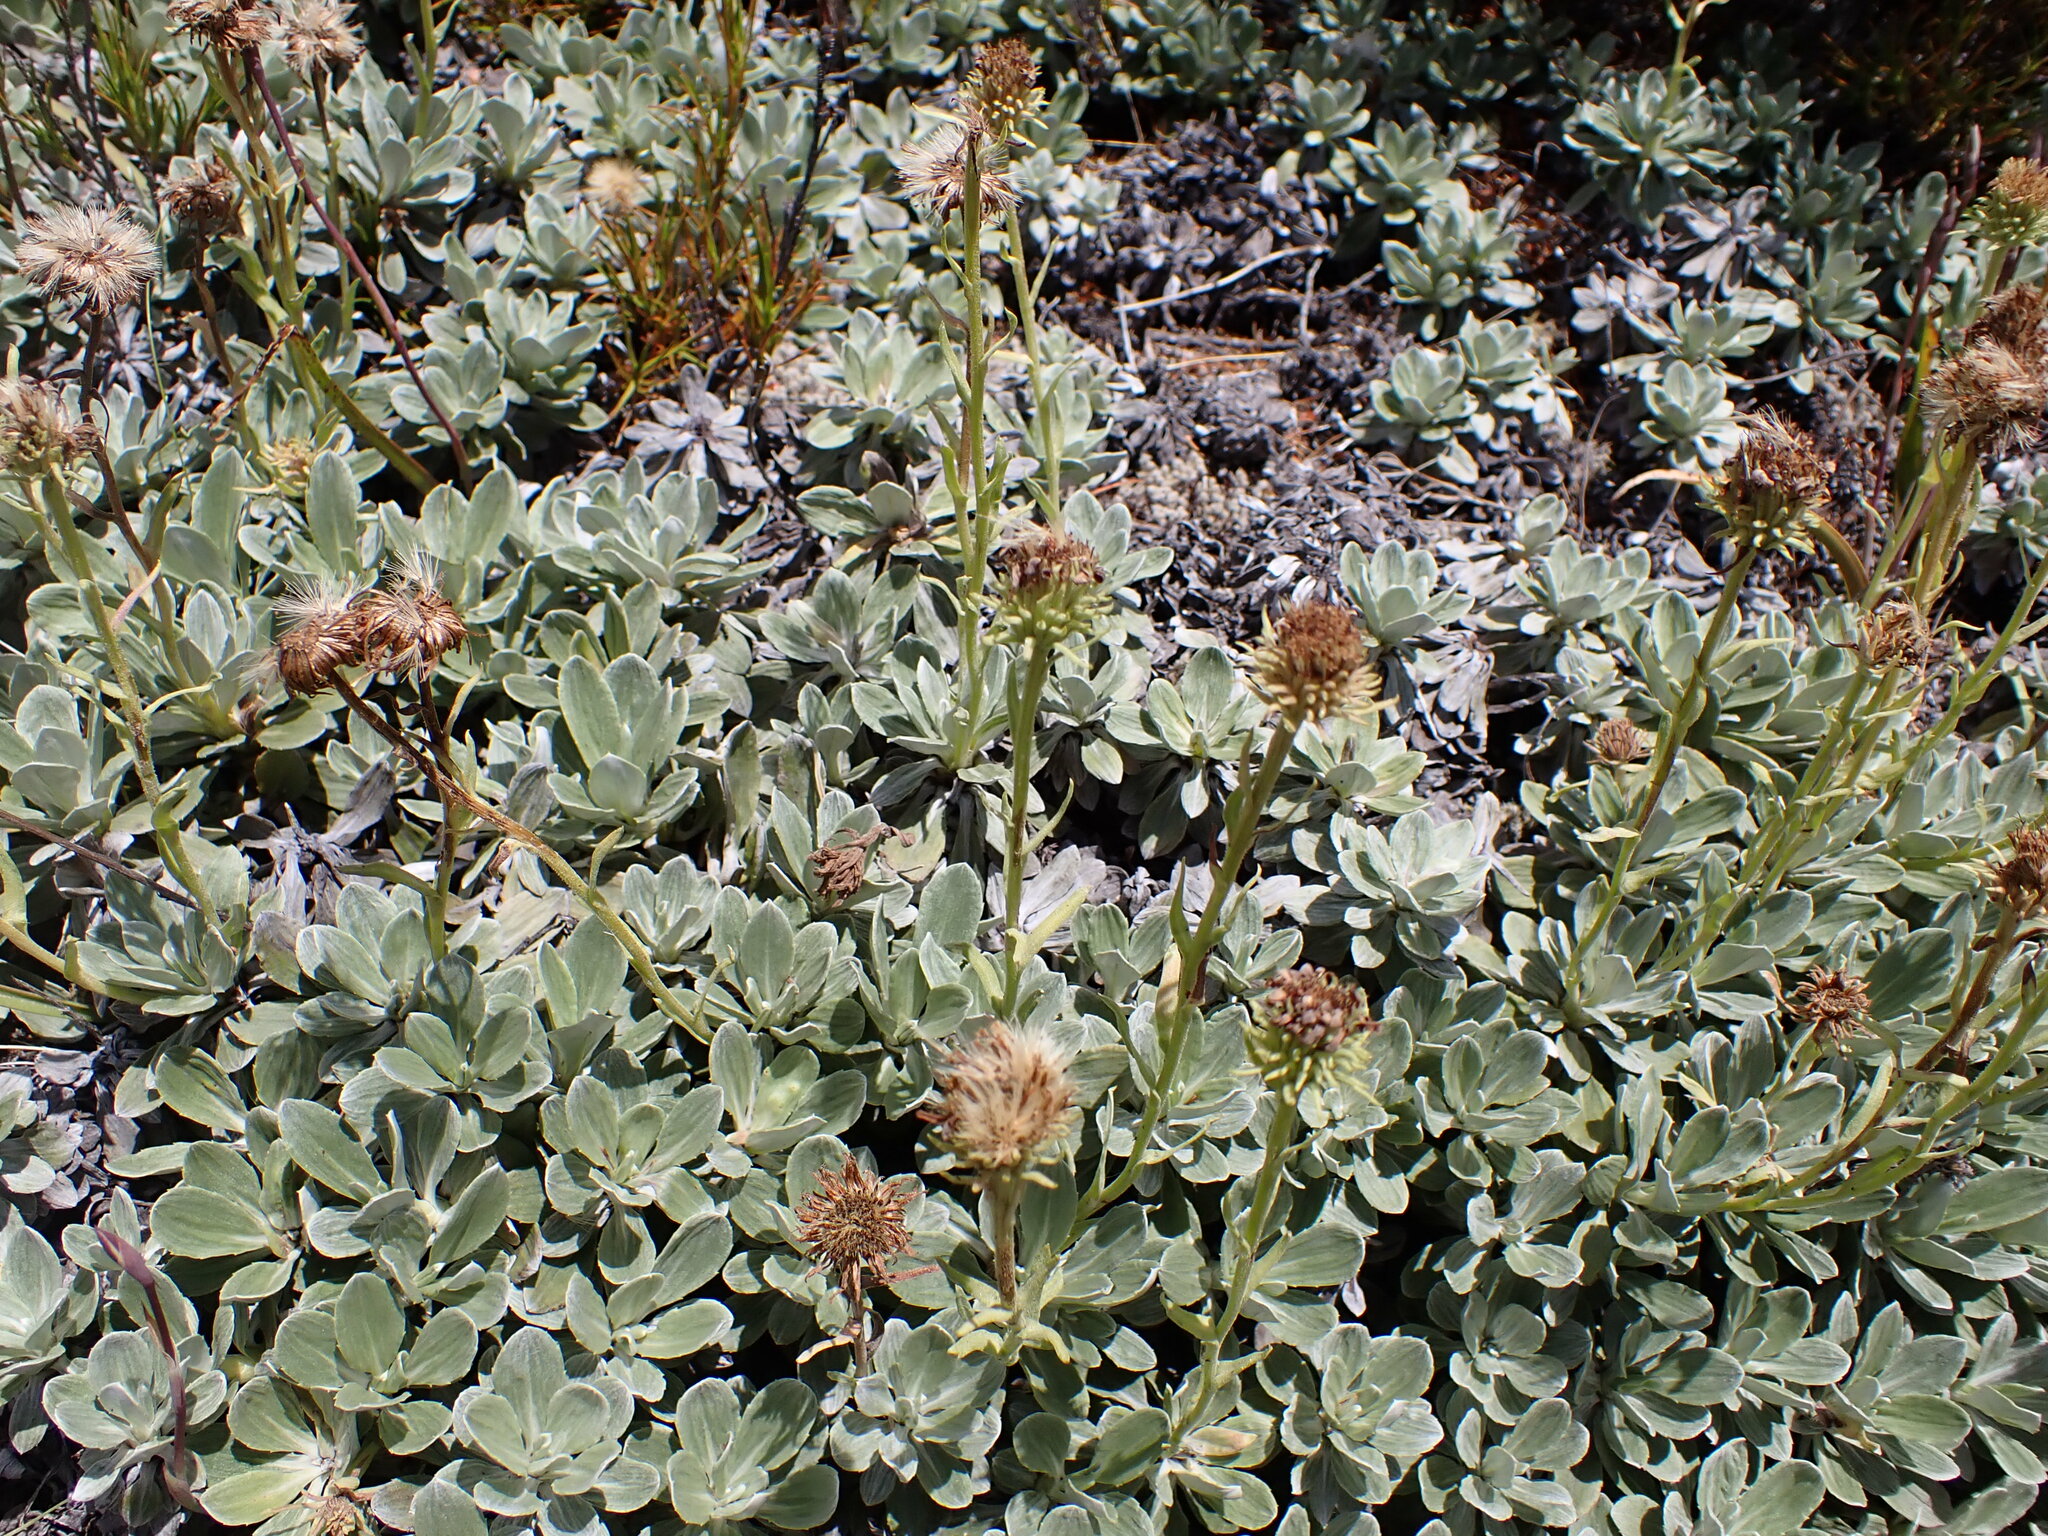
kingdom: Plantae
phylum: Tracheophyta
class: Magnoliopsida
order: Asterales
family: Asteraceae
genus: Celmisia
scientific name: Celmisia discolor
